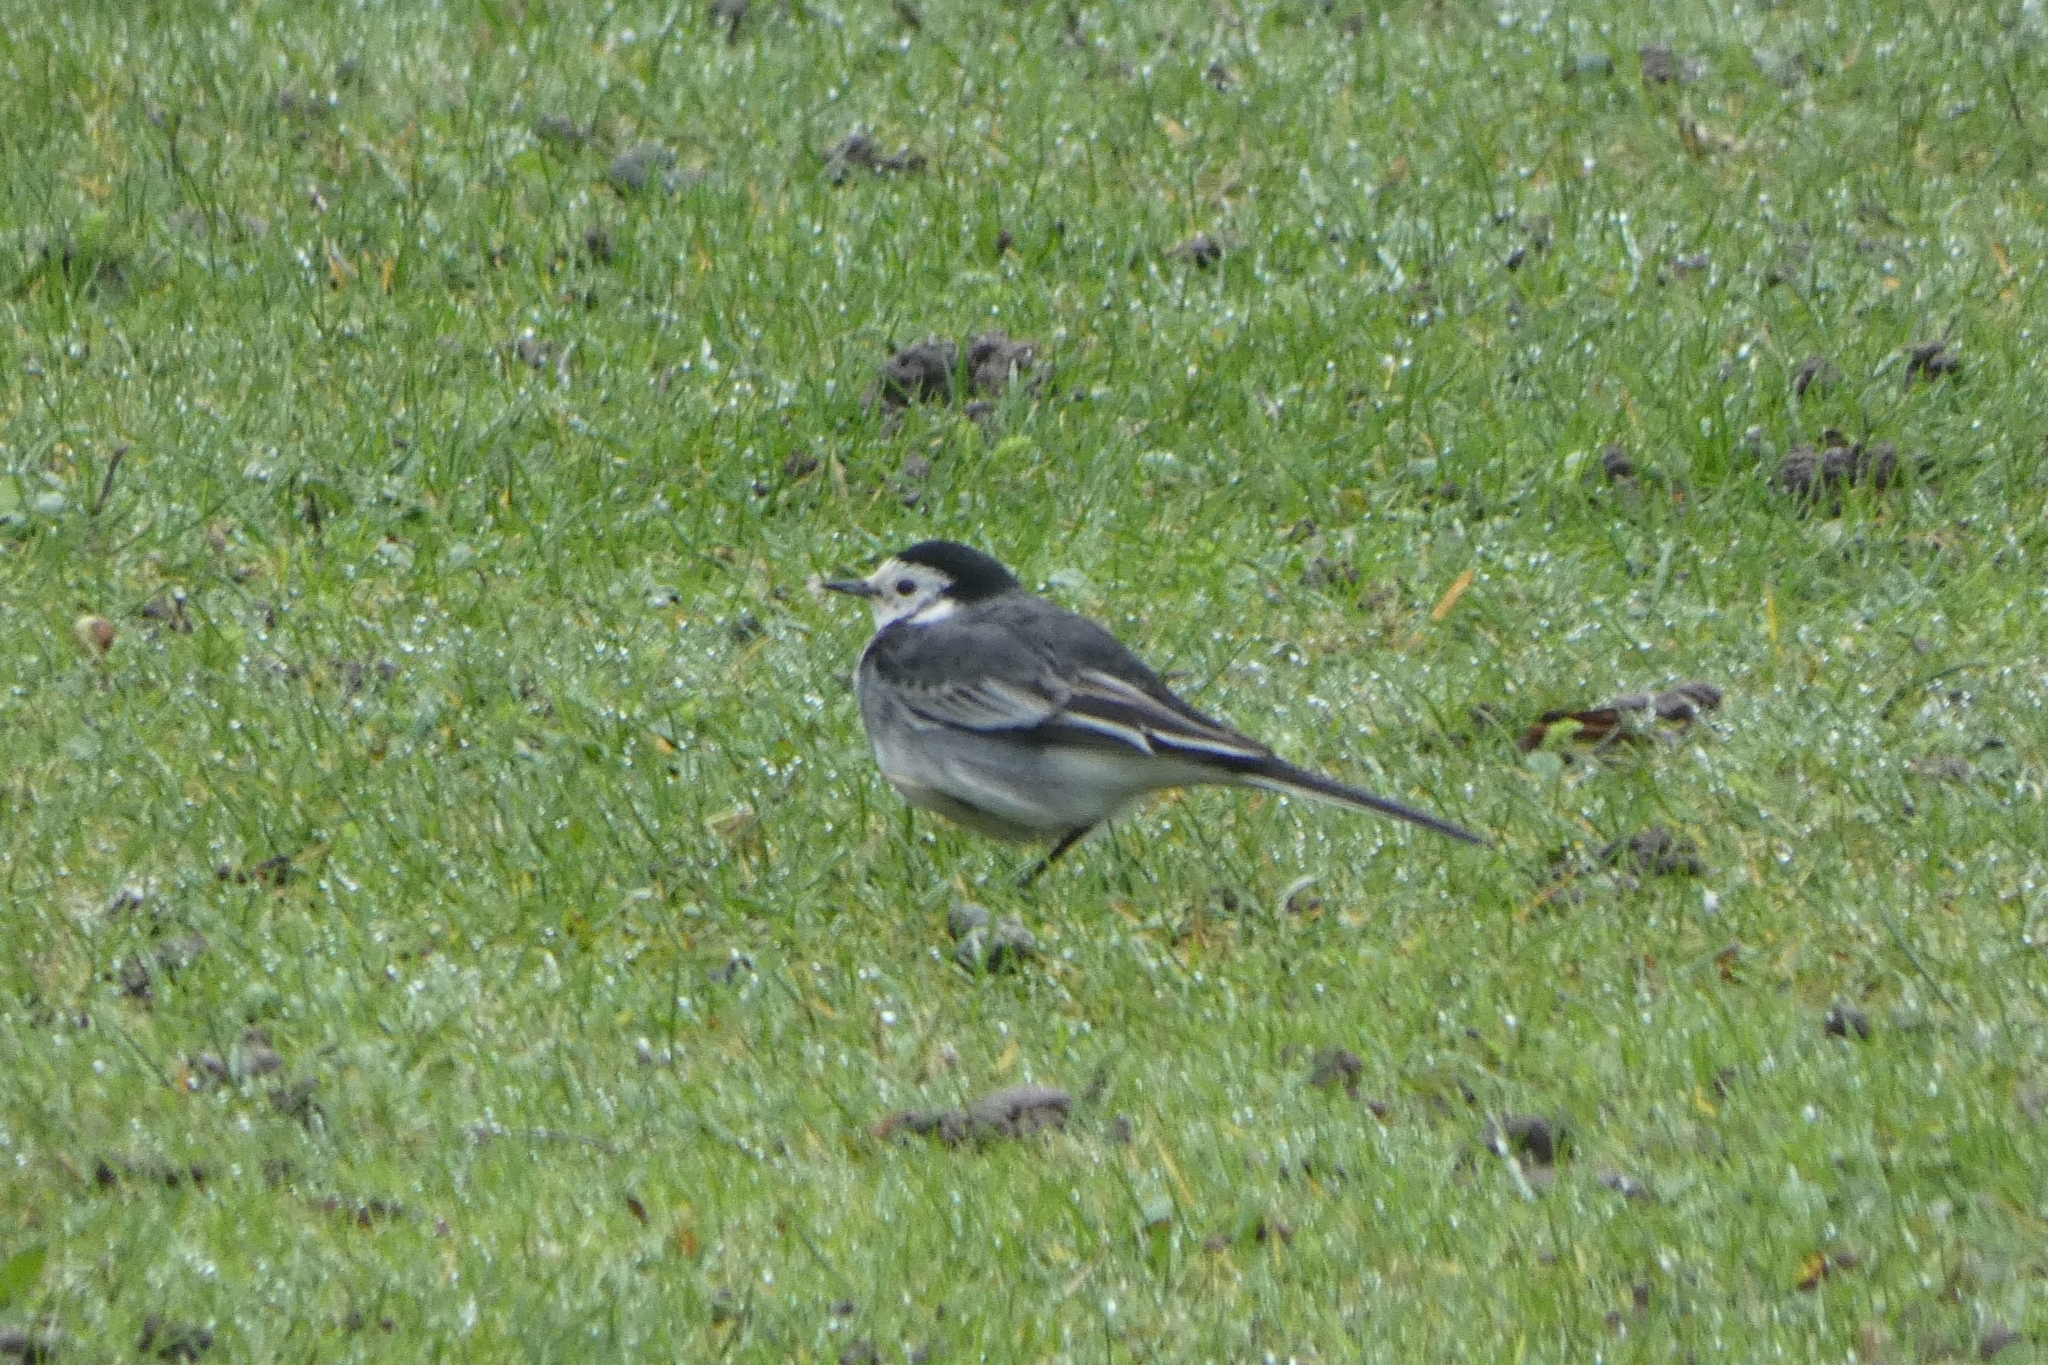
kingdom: Animalia
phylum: Chordata
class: Aves
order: Passeriformes
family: Motacillidae
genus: Motacilla
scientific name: Motacilla alba
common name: White wagtail
